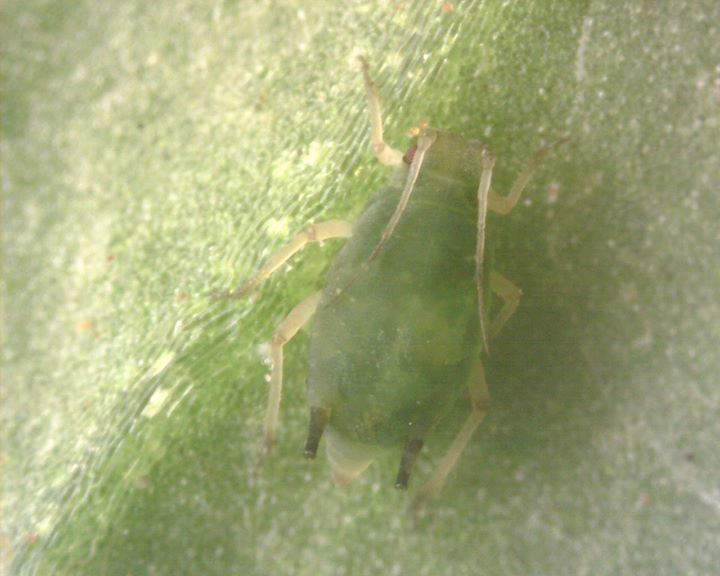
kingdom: Animalia
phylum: Arthropoda
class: Insecta
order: Hemiptera
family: Aphididae
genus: Aphis
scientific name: Aphis gossypii
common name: Melon aphid
